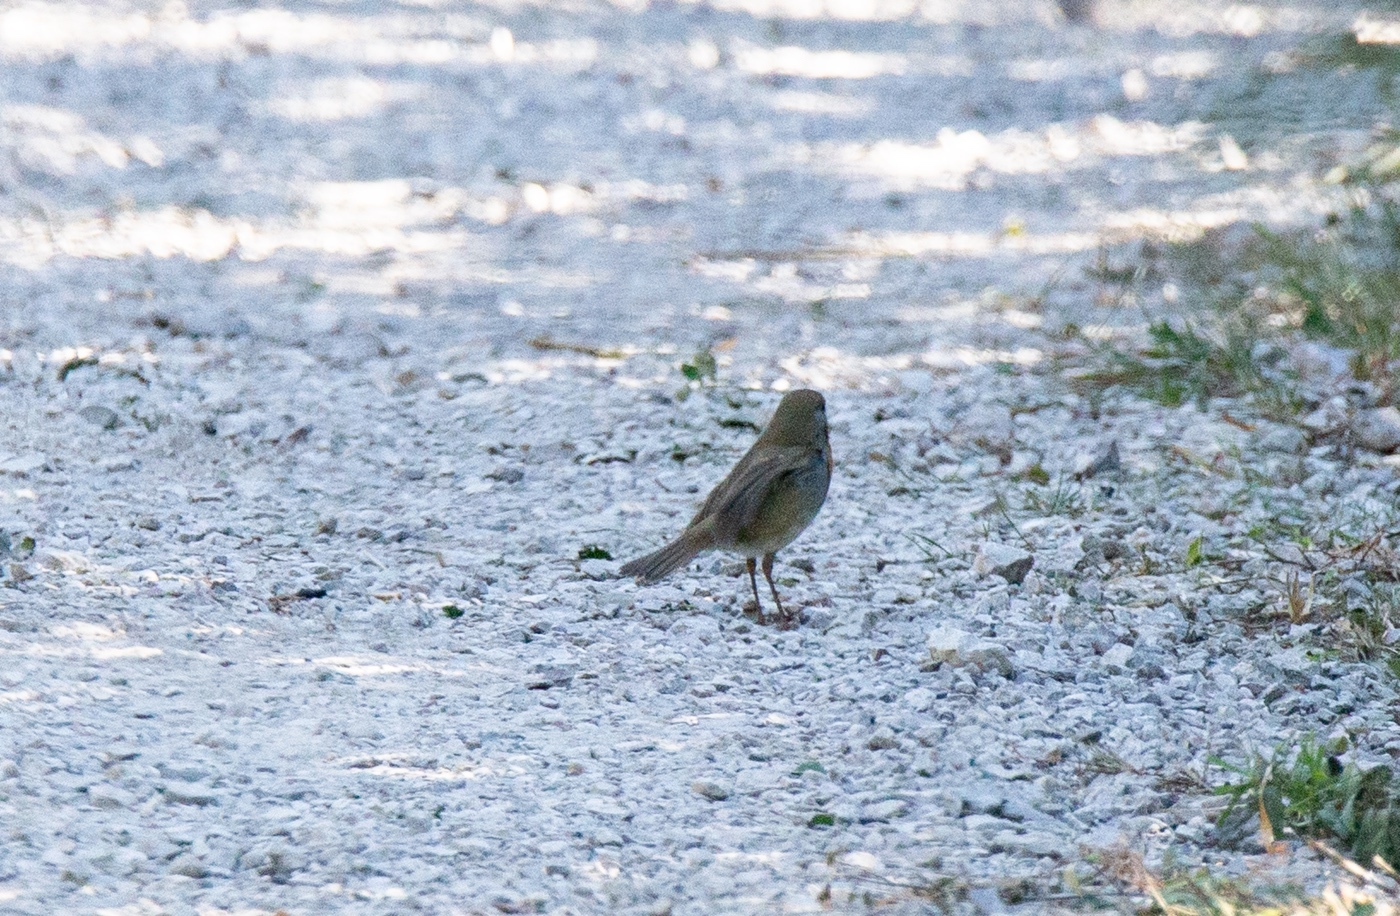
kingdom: Animalia
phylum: Chordata
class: Aves
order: Passeriformes
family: Muscicapidae
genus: Erithacus
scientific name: Erithacus rubecula
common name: European robin
